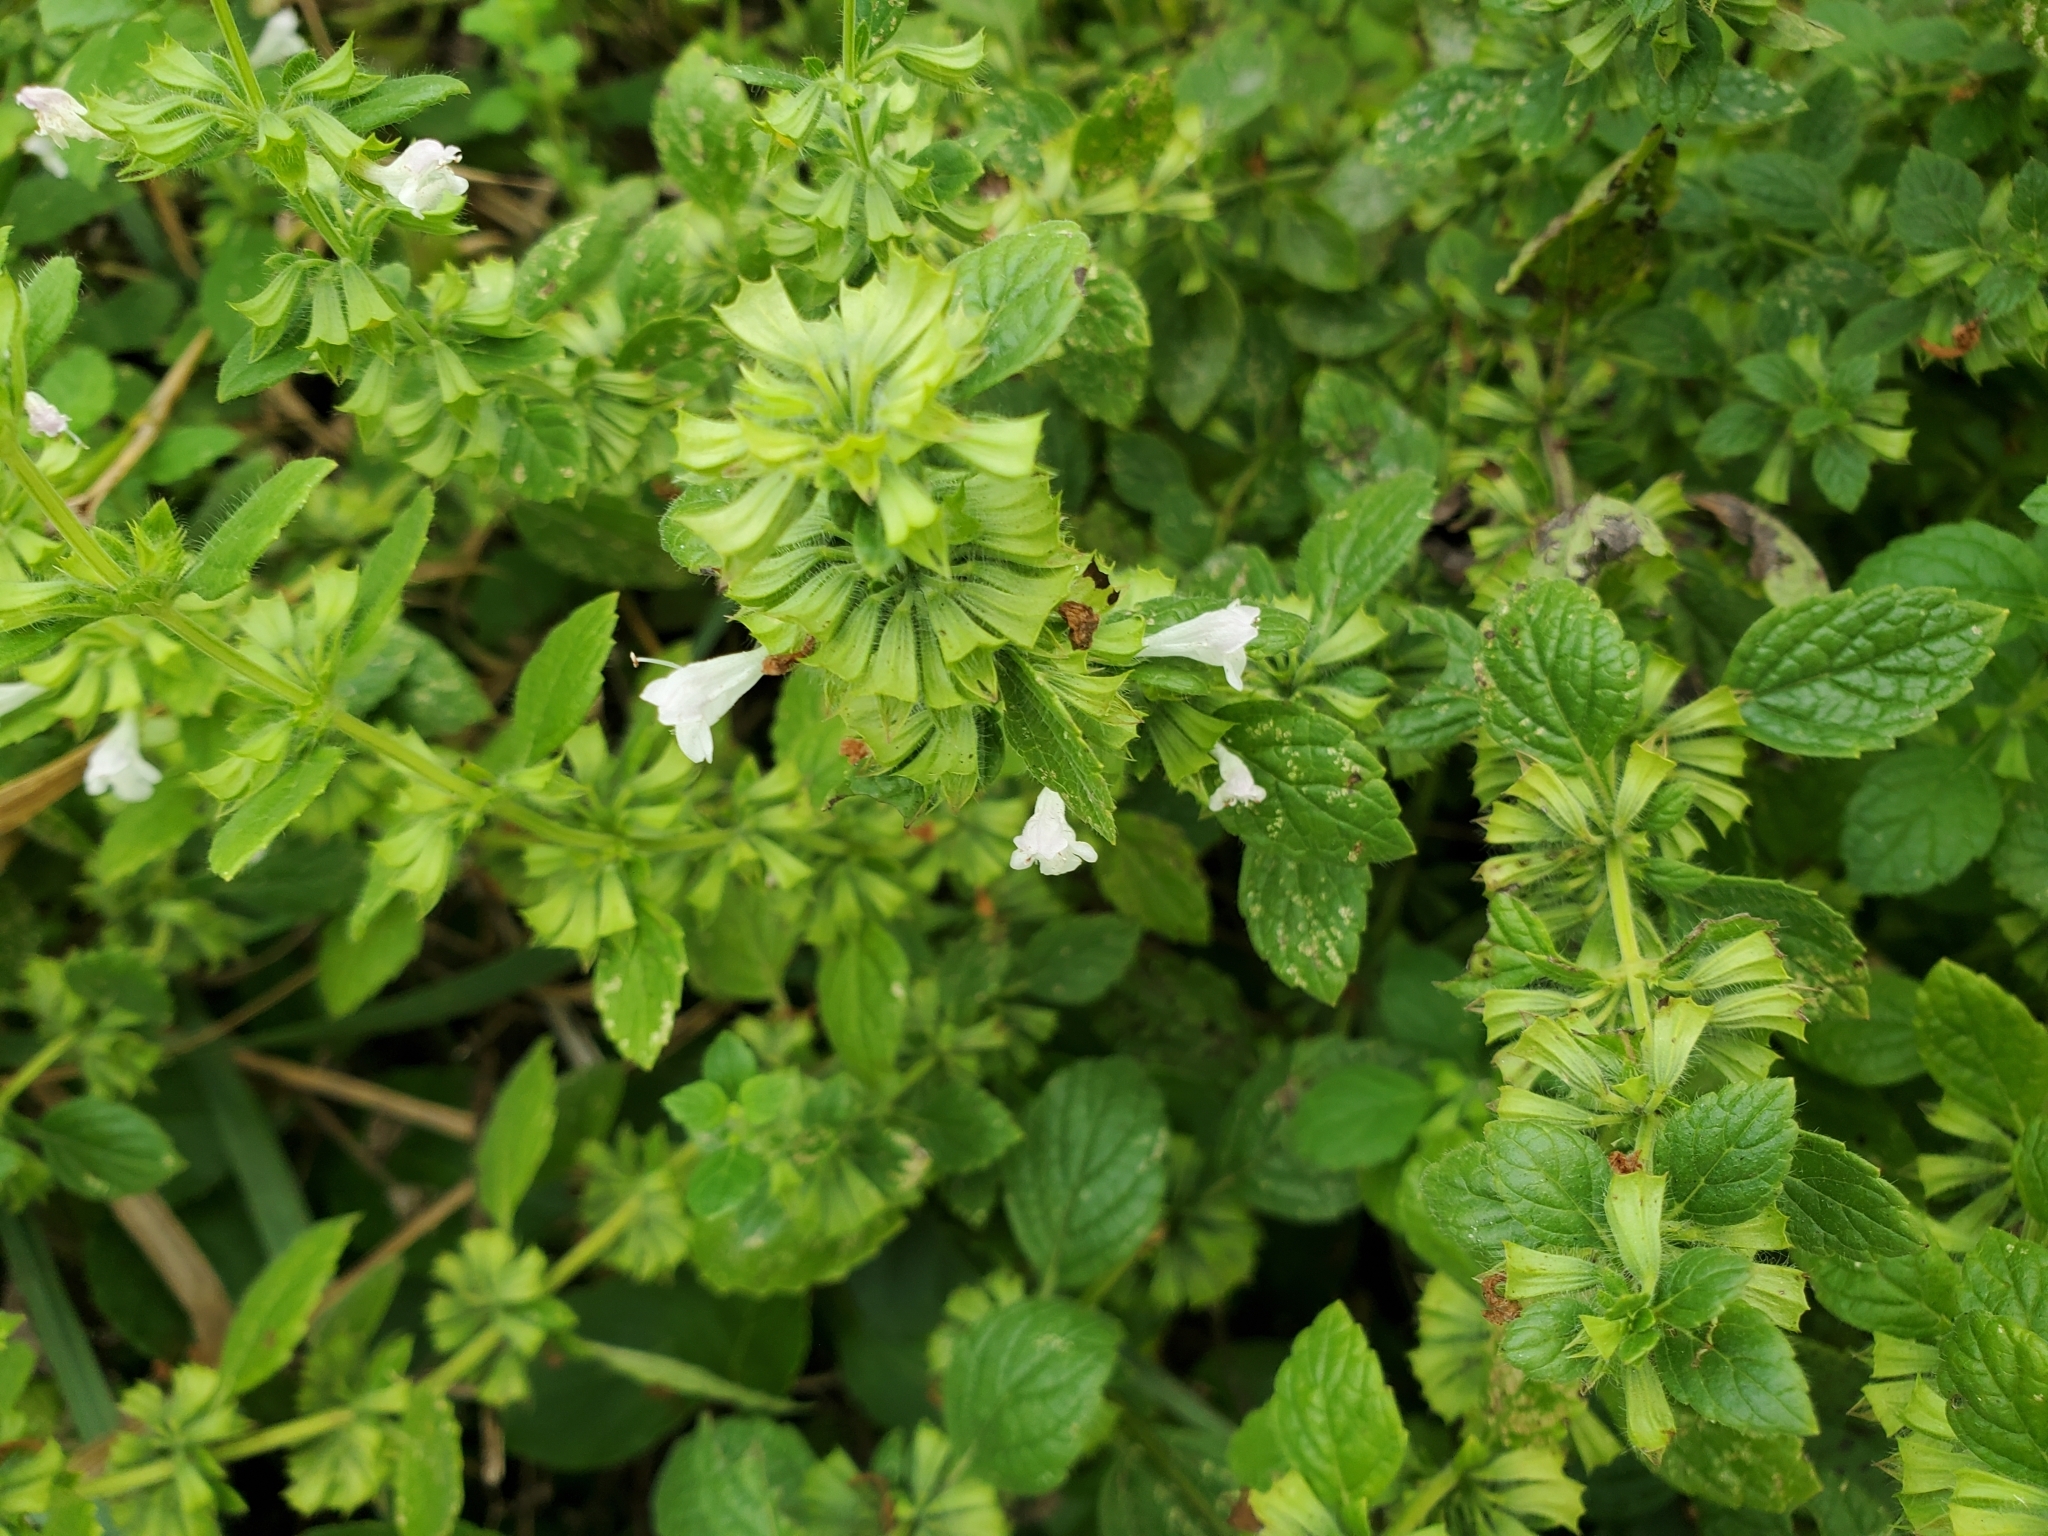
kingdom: Plantae
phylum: Tracheophyta
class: Magnoliopsida
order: Lamiales
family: Lamiaceae
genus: Melissa
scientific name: Melissa officinalis
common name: Balm
